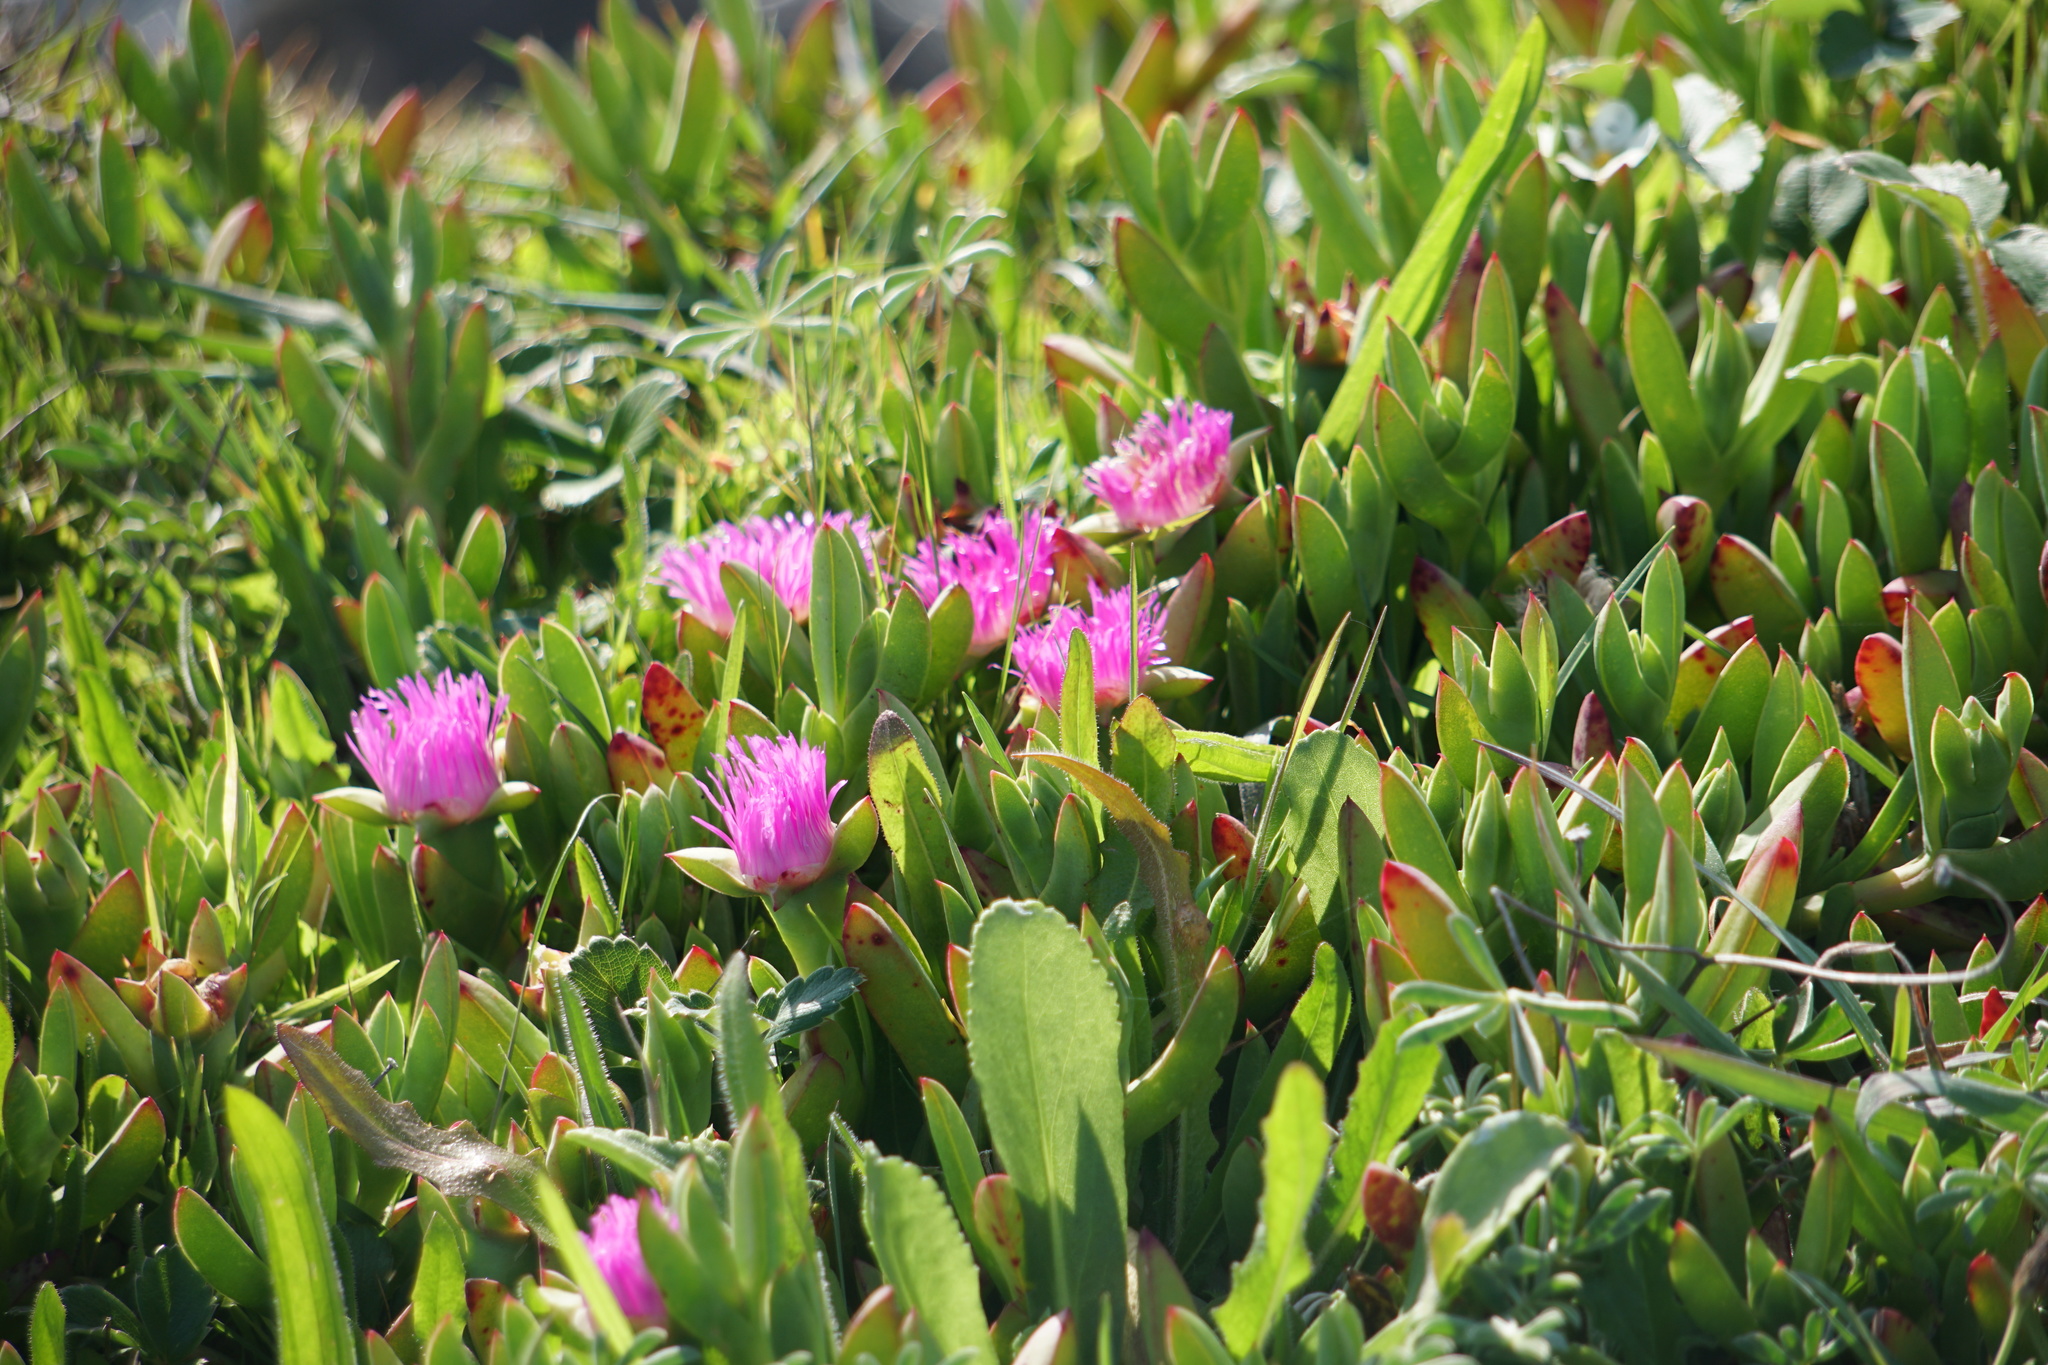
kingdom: Plantae
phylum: Tracheophyta
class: Magnoliopsida
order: Caryophyllales
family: Aizoaceae
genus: Carpobrotus
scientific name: Carpobrotus chilensis
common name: Sea fig
